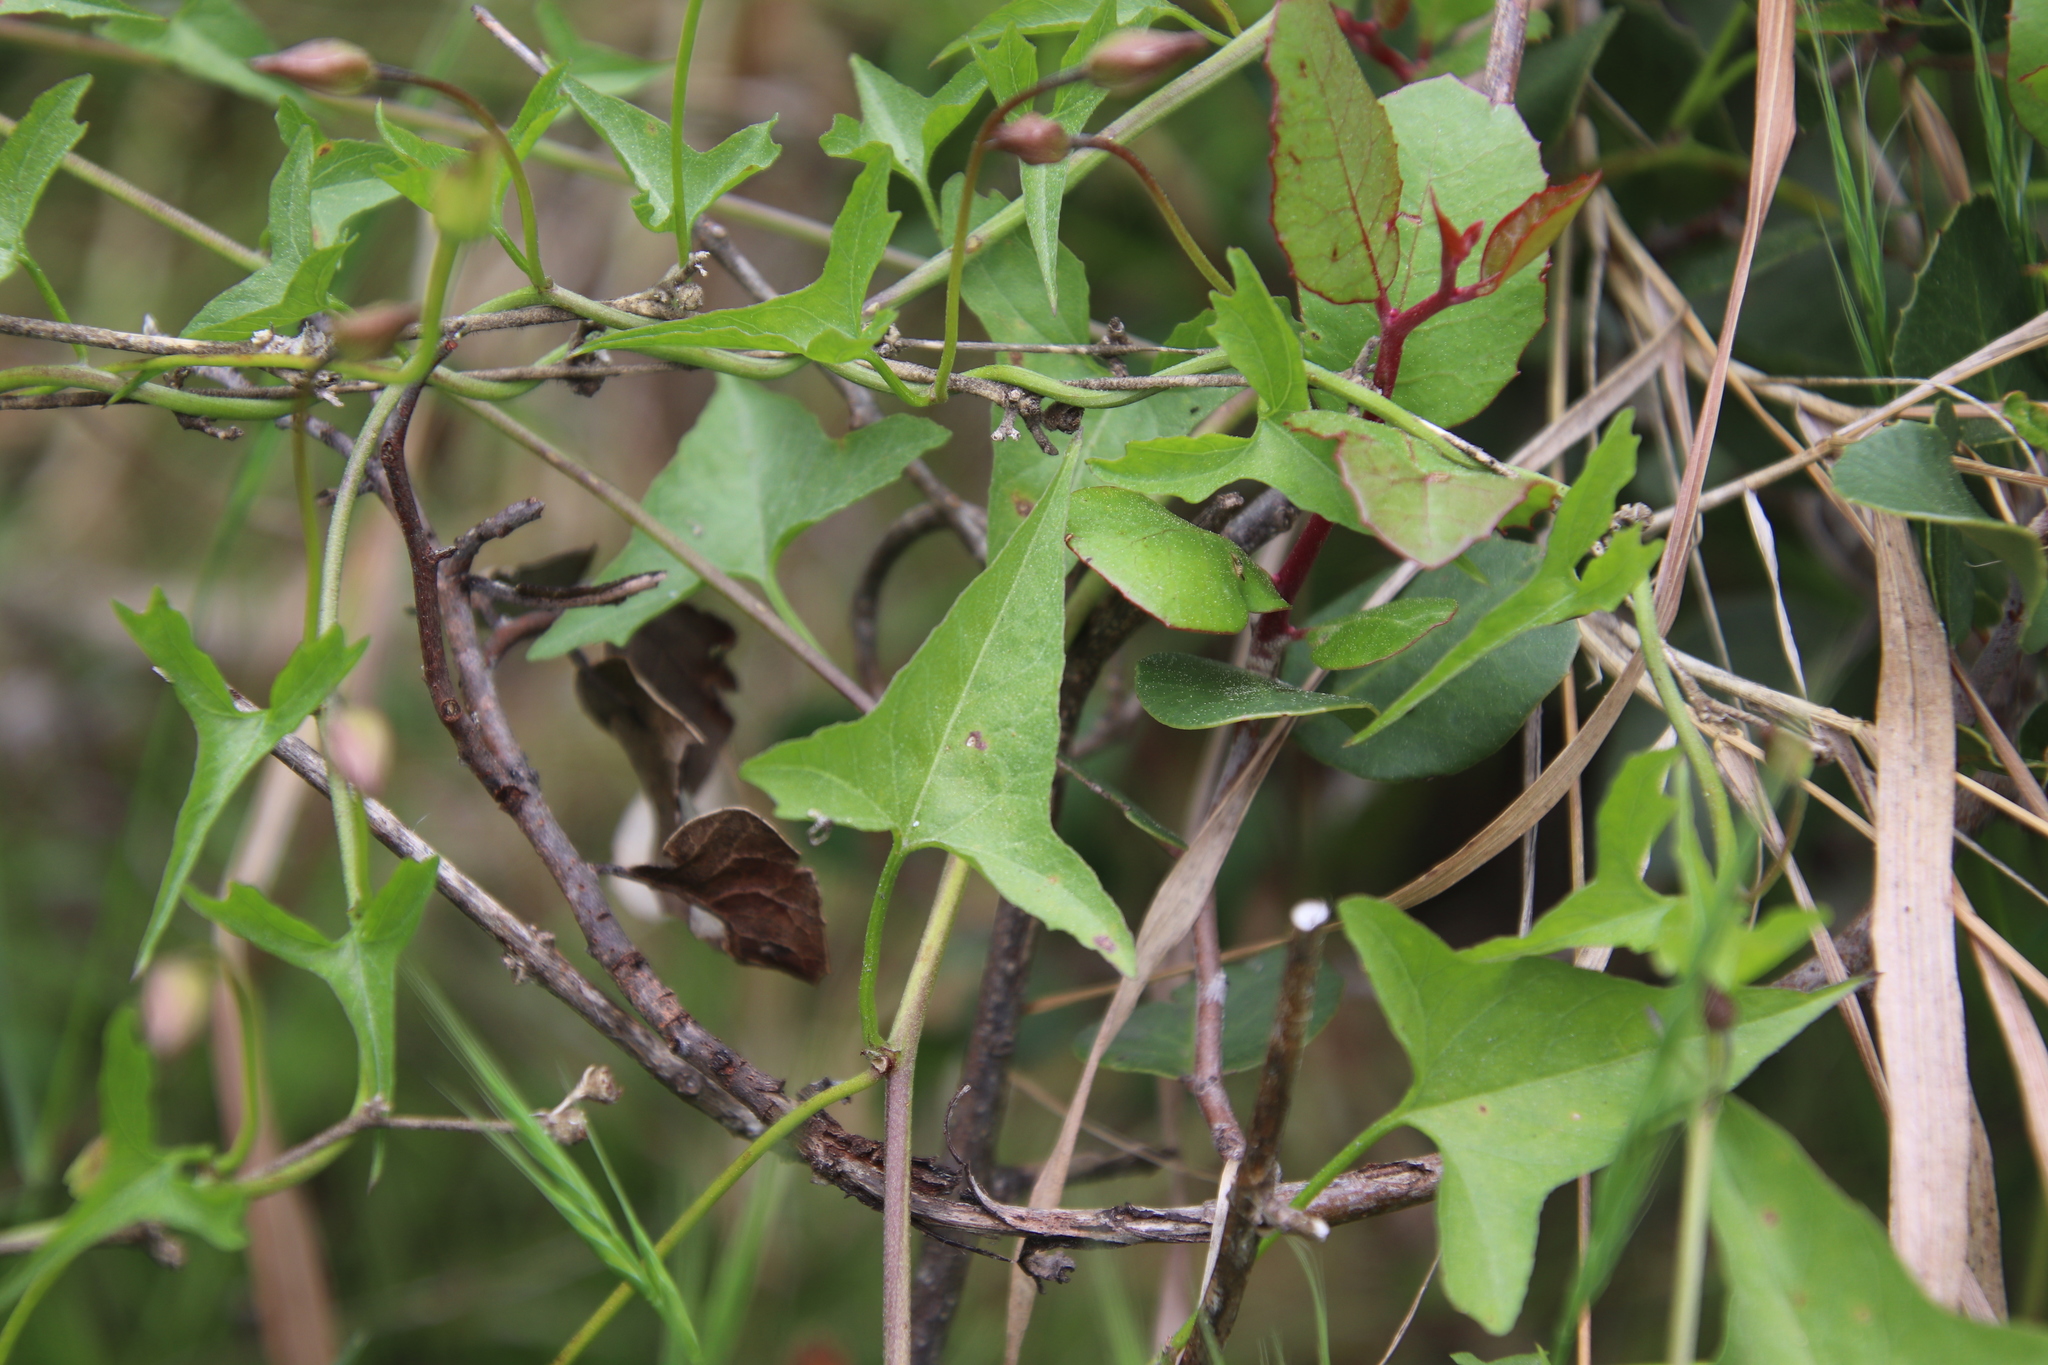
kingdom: Plantae
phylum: Tracheophyta
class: Magnoliopsida
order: Solanales
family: Convolvulaceae
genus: Calystegia
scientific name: Calystegia macrostegia
